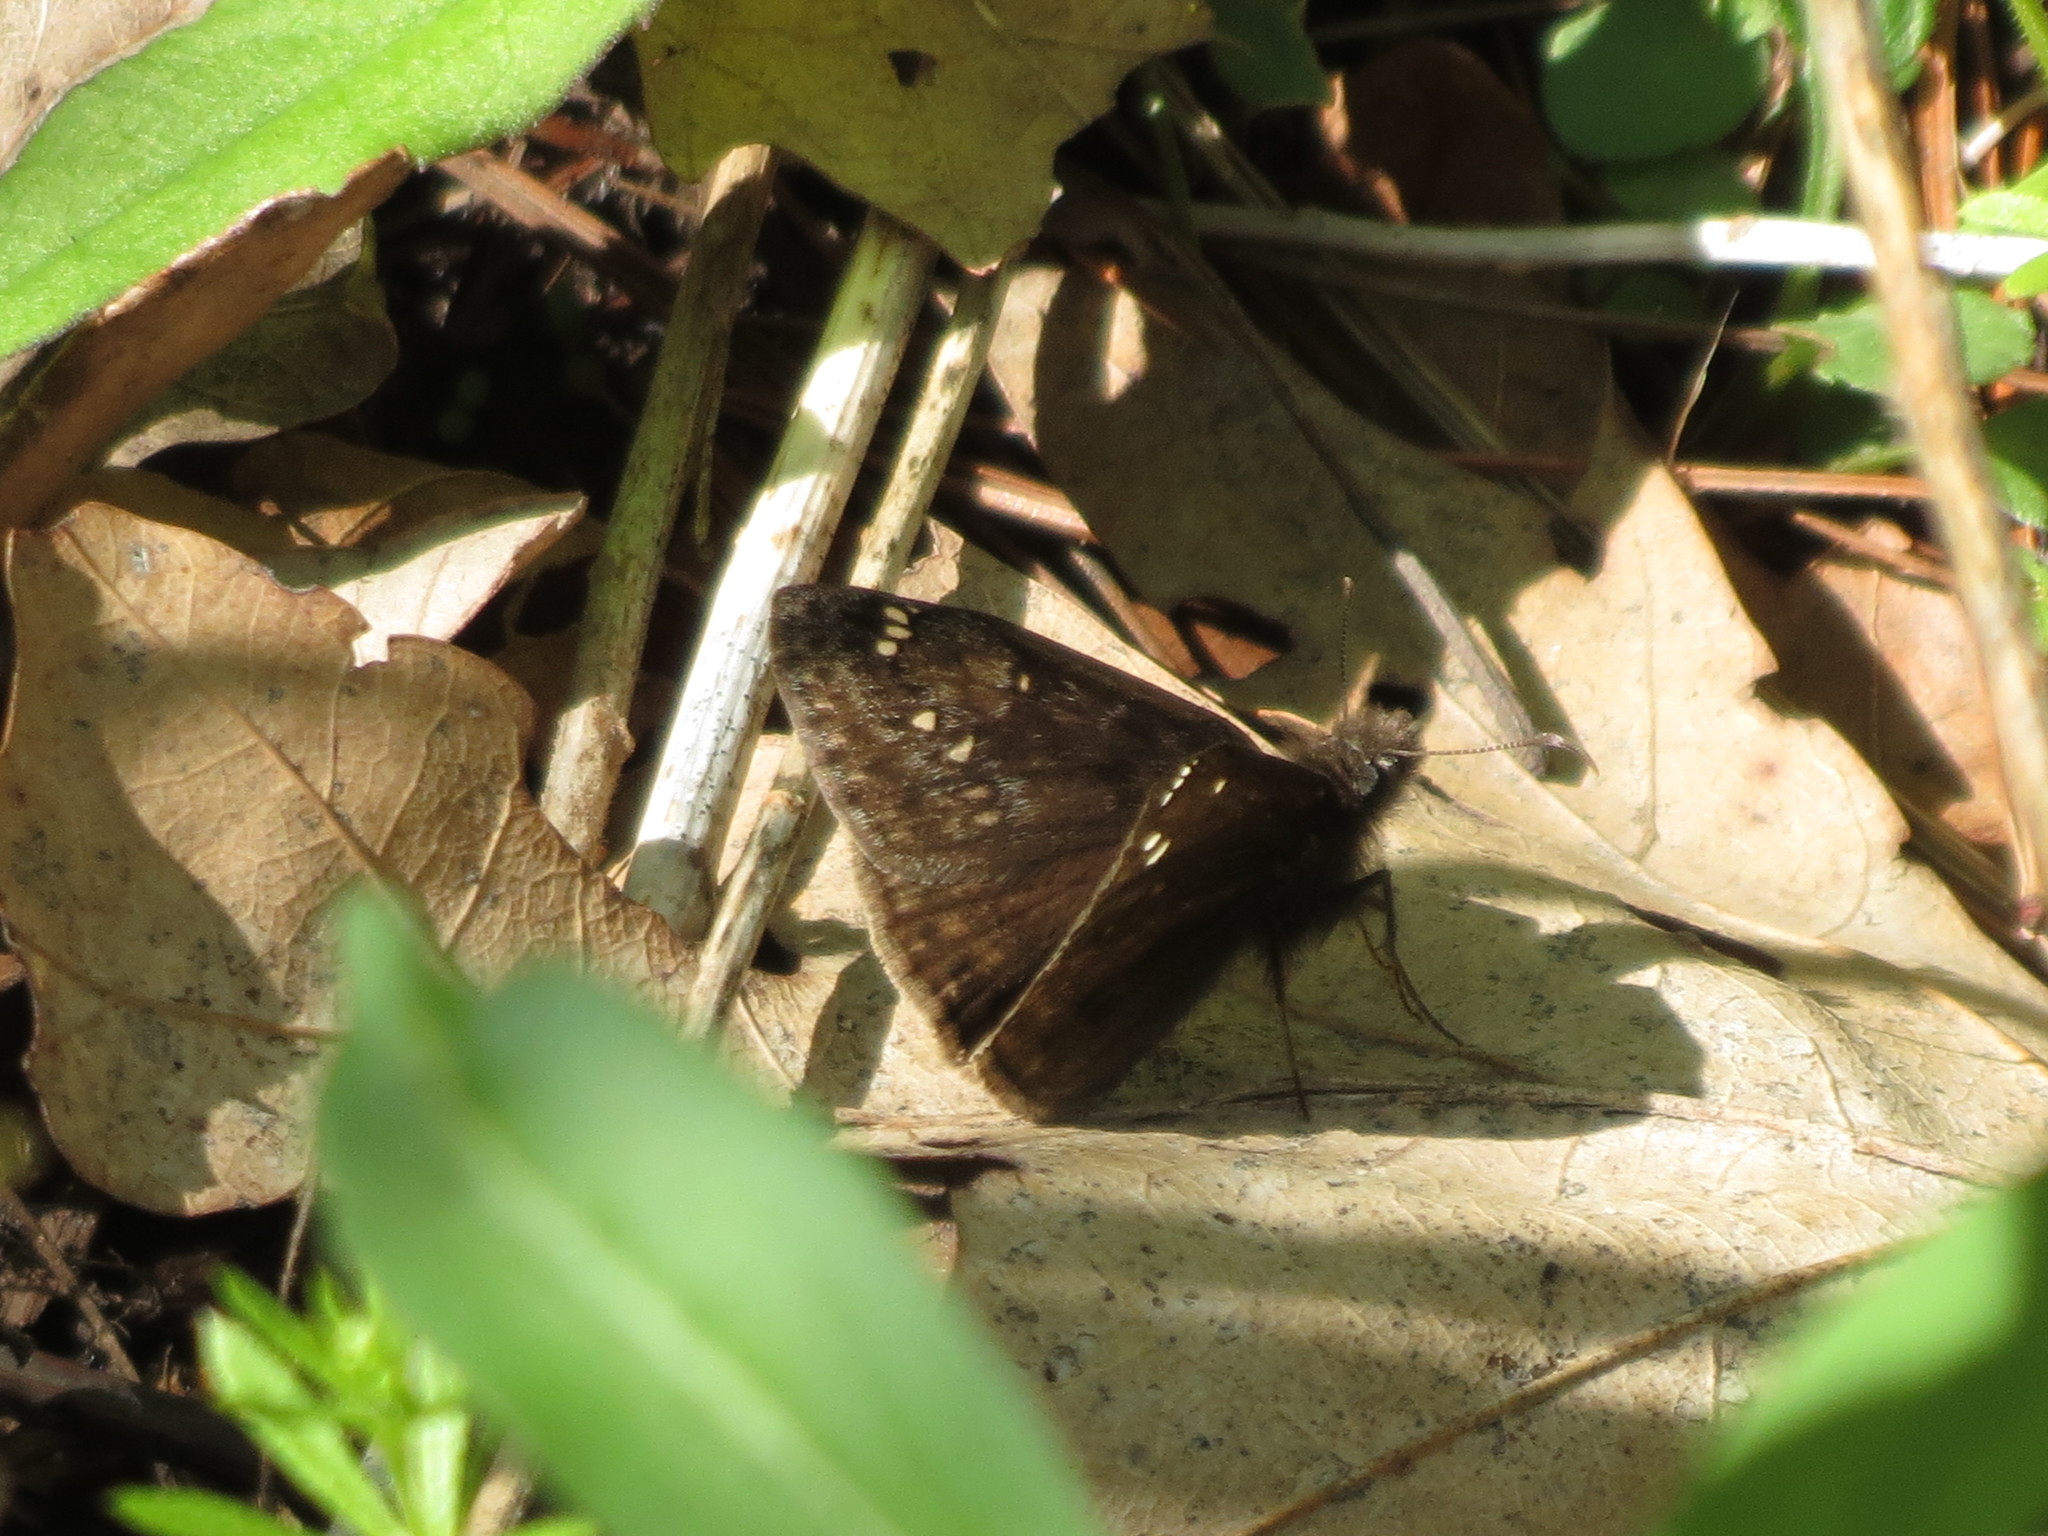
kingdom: Animalia
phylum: Arthropoda
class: Insecta
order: Lepidoptera
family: Hesperiidae
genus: Erynnis
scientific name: Erynnis juvenalis
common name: Juvenal's duskywing
